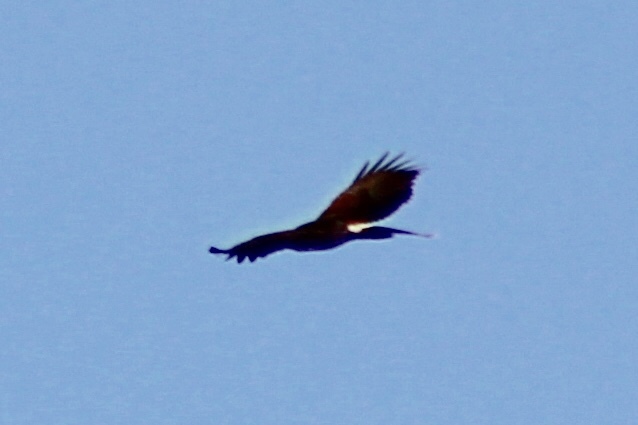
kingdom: Animalia
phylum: Chordata
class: Aves
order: Accipitriformes
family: Accipitridae
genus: Parabuteo
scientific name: Parabuteo unicinctus
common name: Harris's hawk
